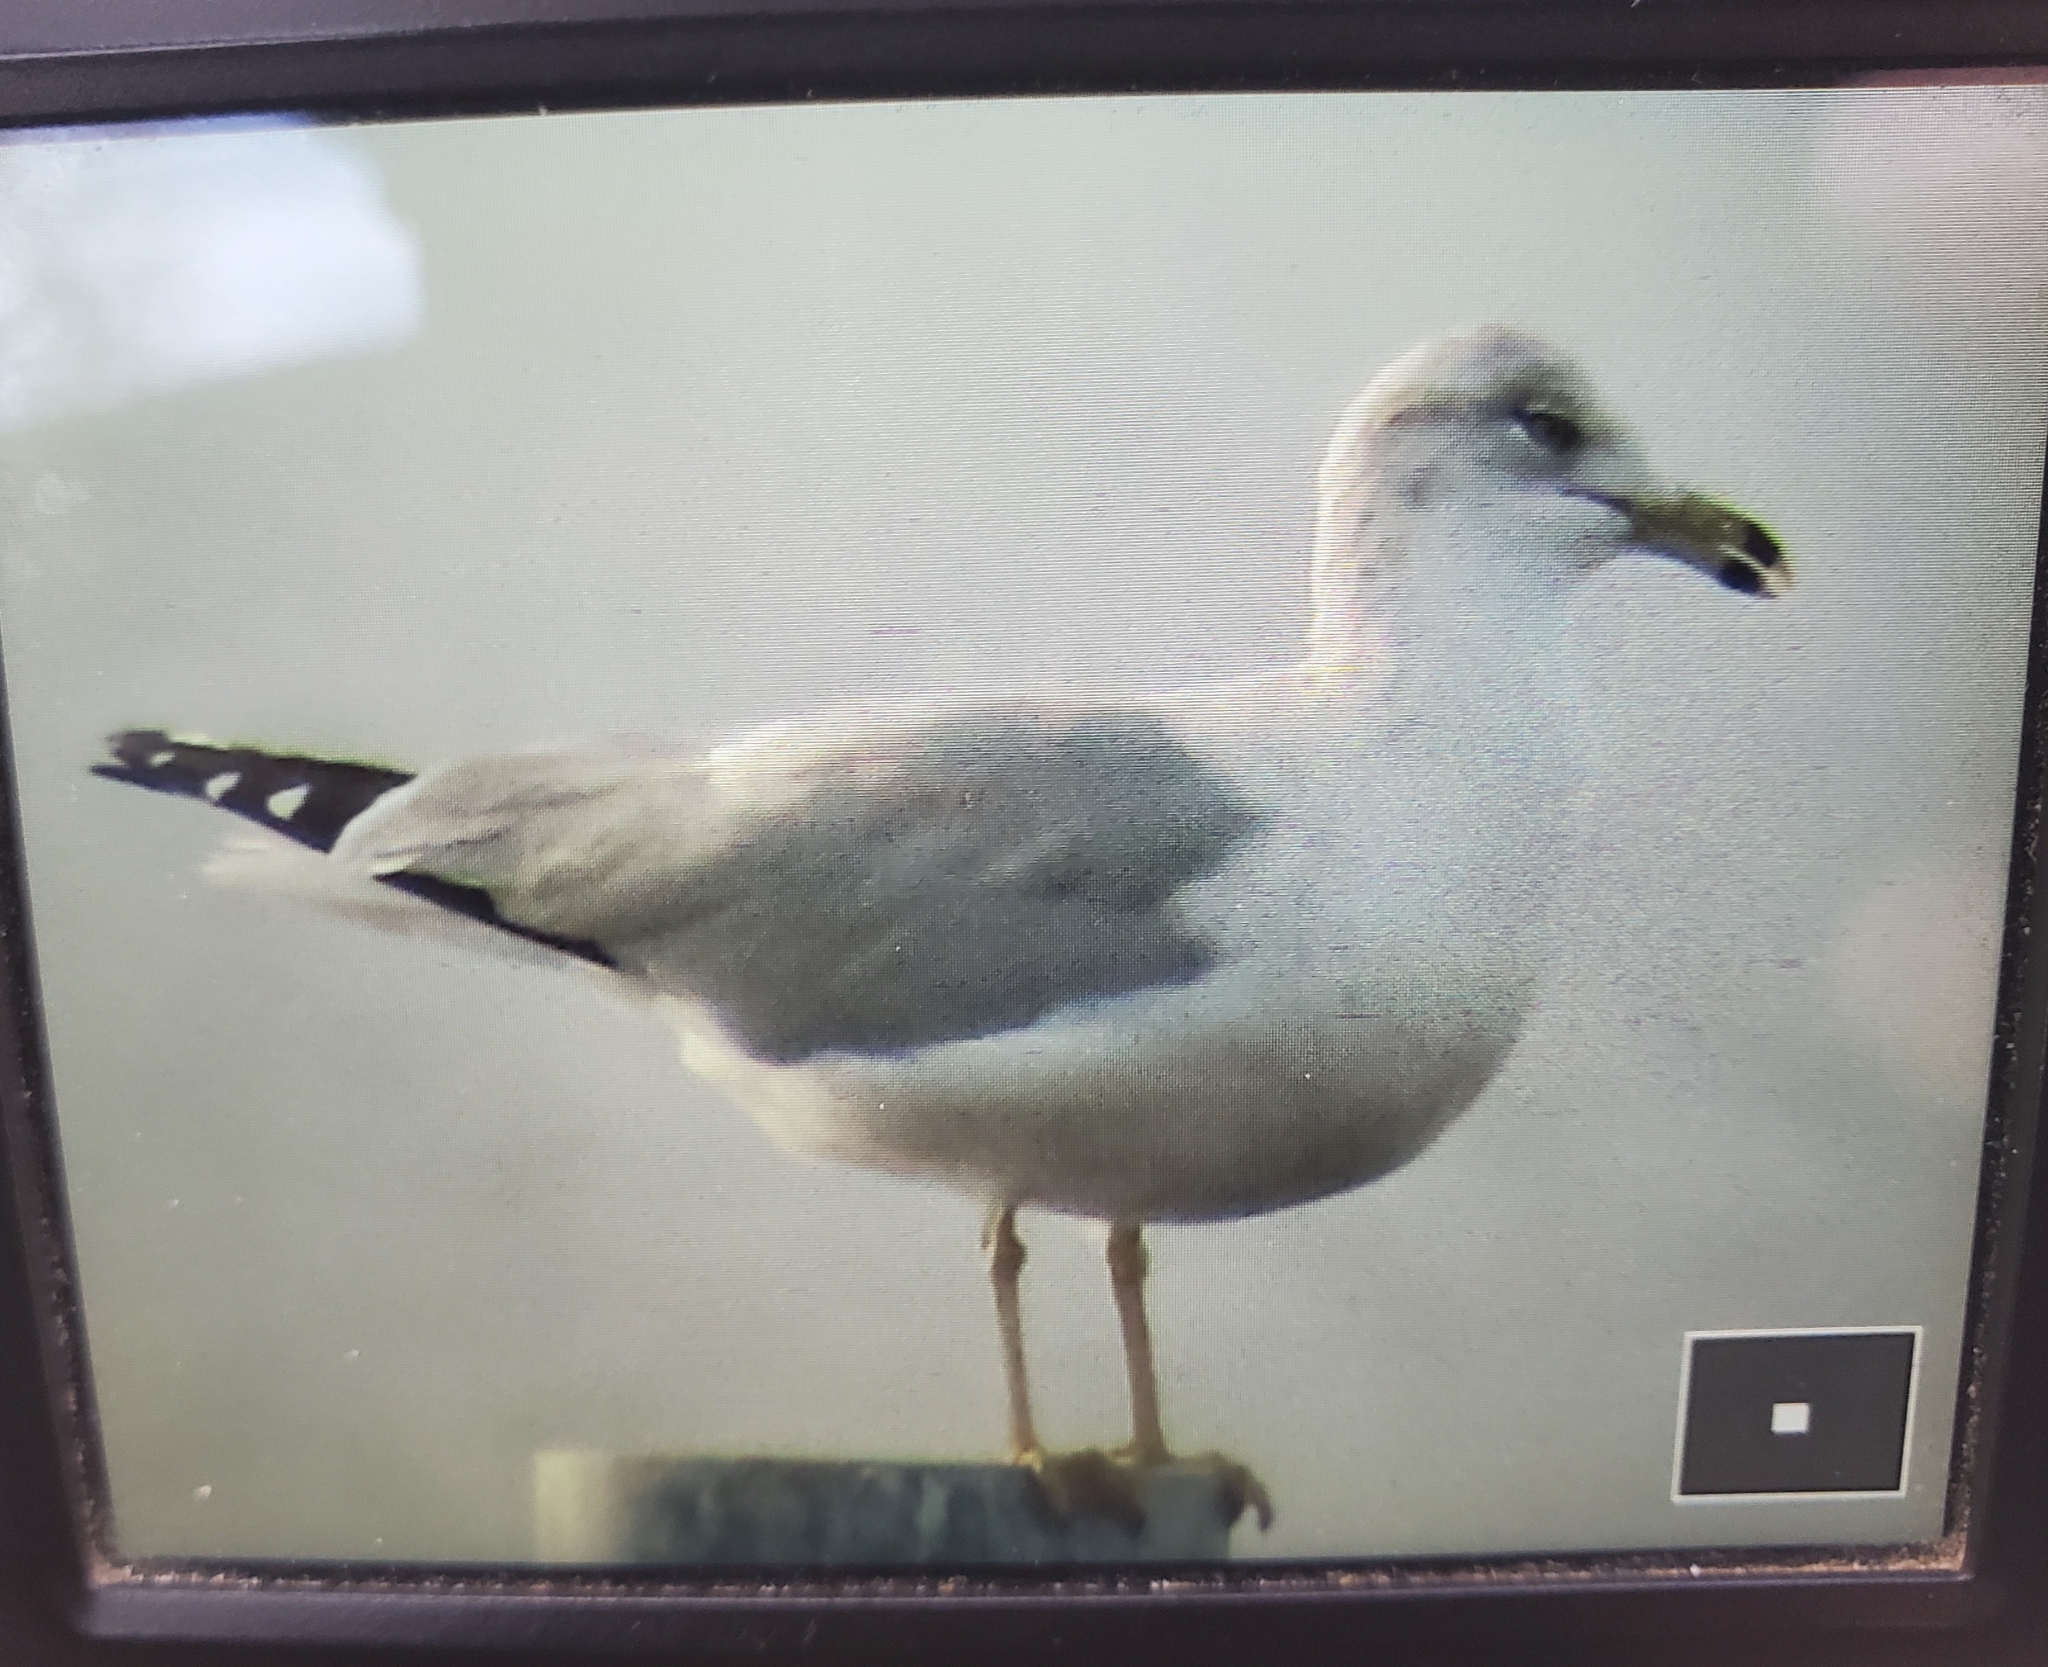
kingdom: Animalia
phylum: Chordata
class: Aves
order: Charadriiformes
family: Laridae
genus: Larus
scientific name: Larus delawarensis
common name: Ring-billed gull
